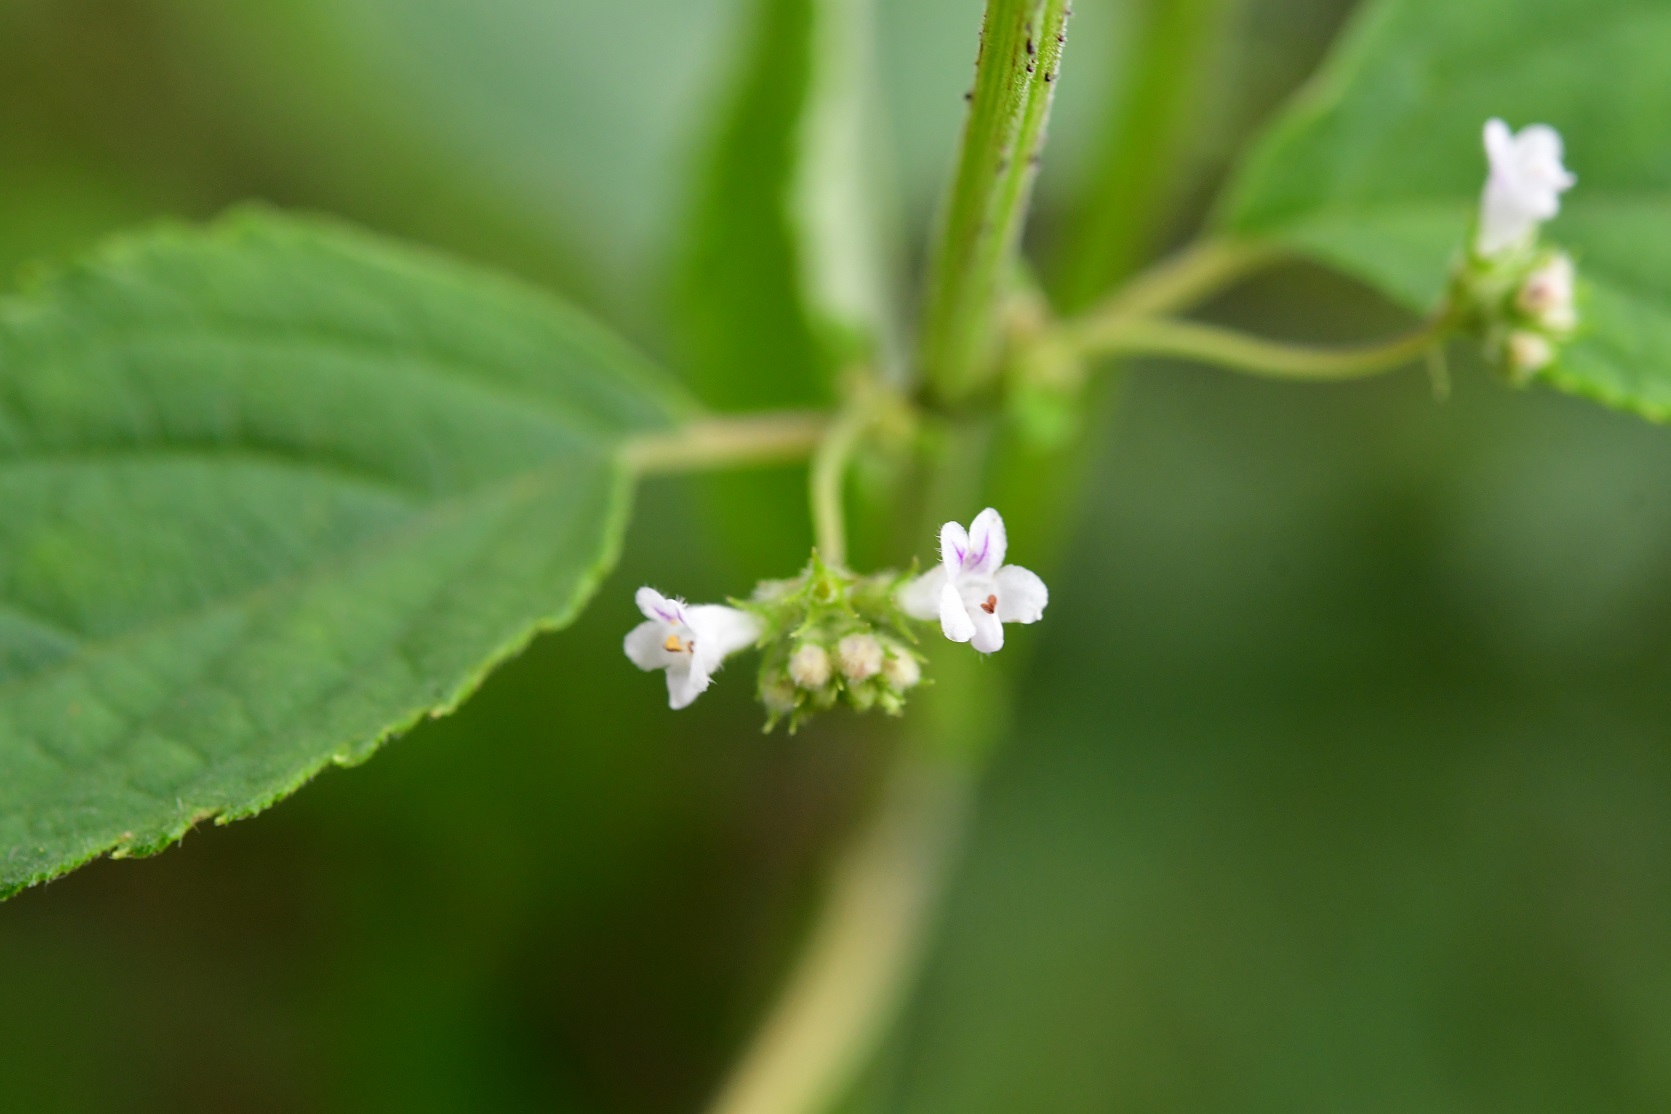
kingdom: Plantae
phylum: Tracheophyta
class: Magnoliopsida
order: Lamiales
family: Lamiaceae
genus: Mesosphaerum
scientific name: Mesosphaerum urticoides
